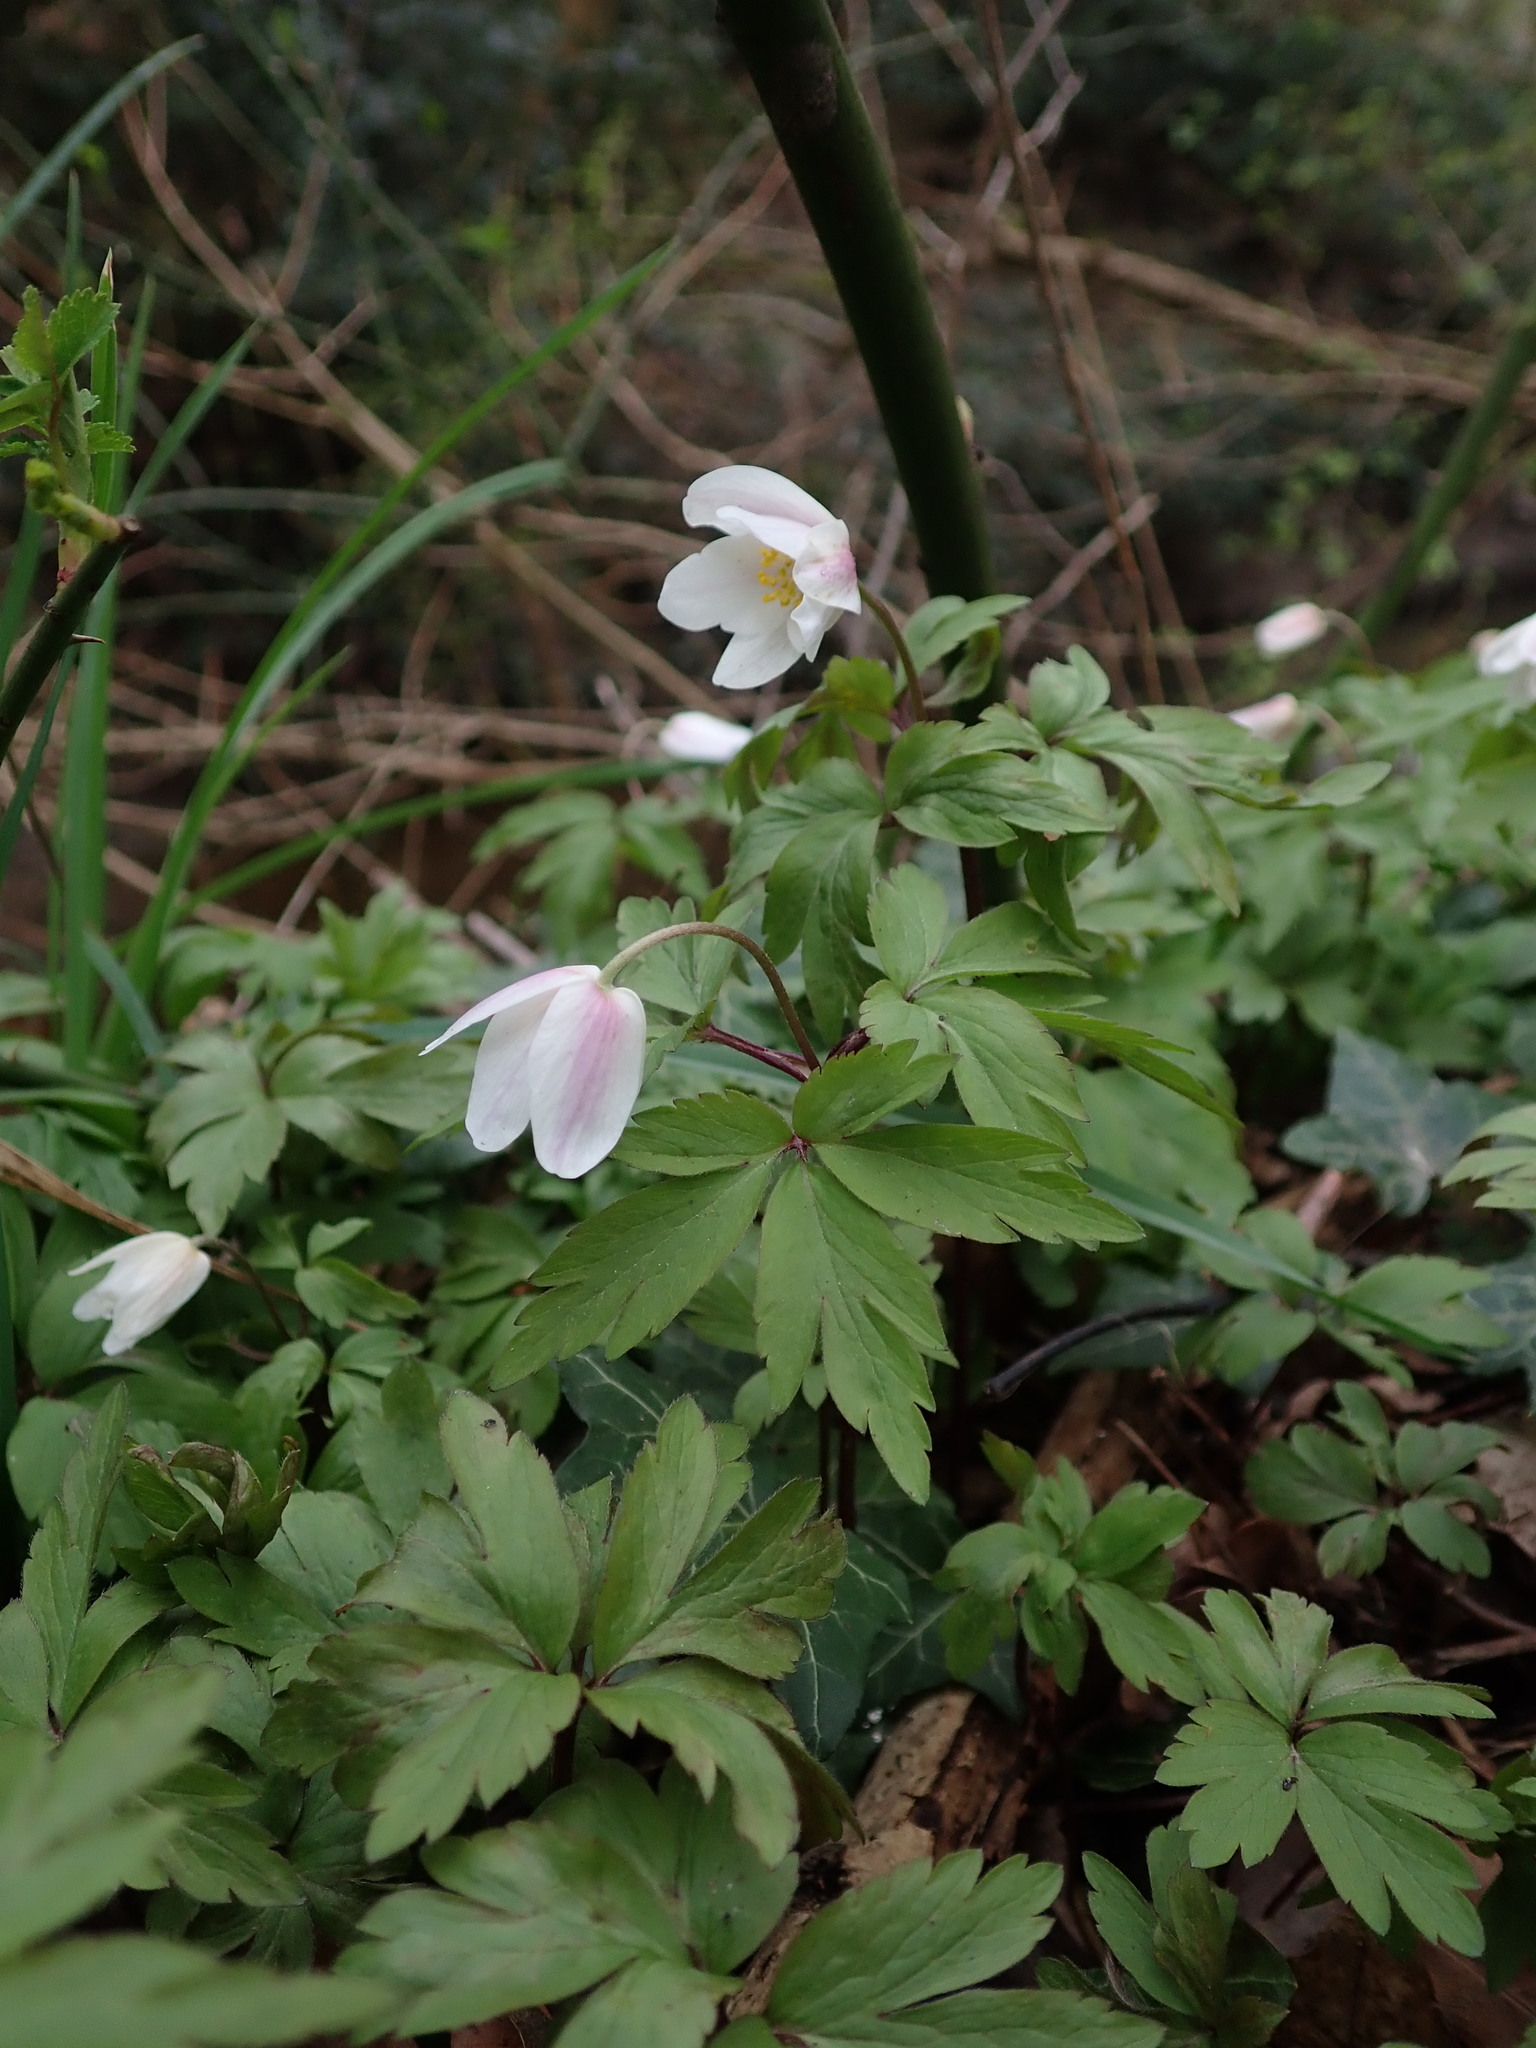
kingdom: Plantae
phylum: Tracheophyta
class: Magnoliopsida
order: Ranunculales
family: Ranunculaceae
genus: Anemone
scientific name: Anemone nemorosa
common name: Wood anemone
